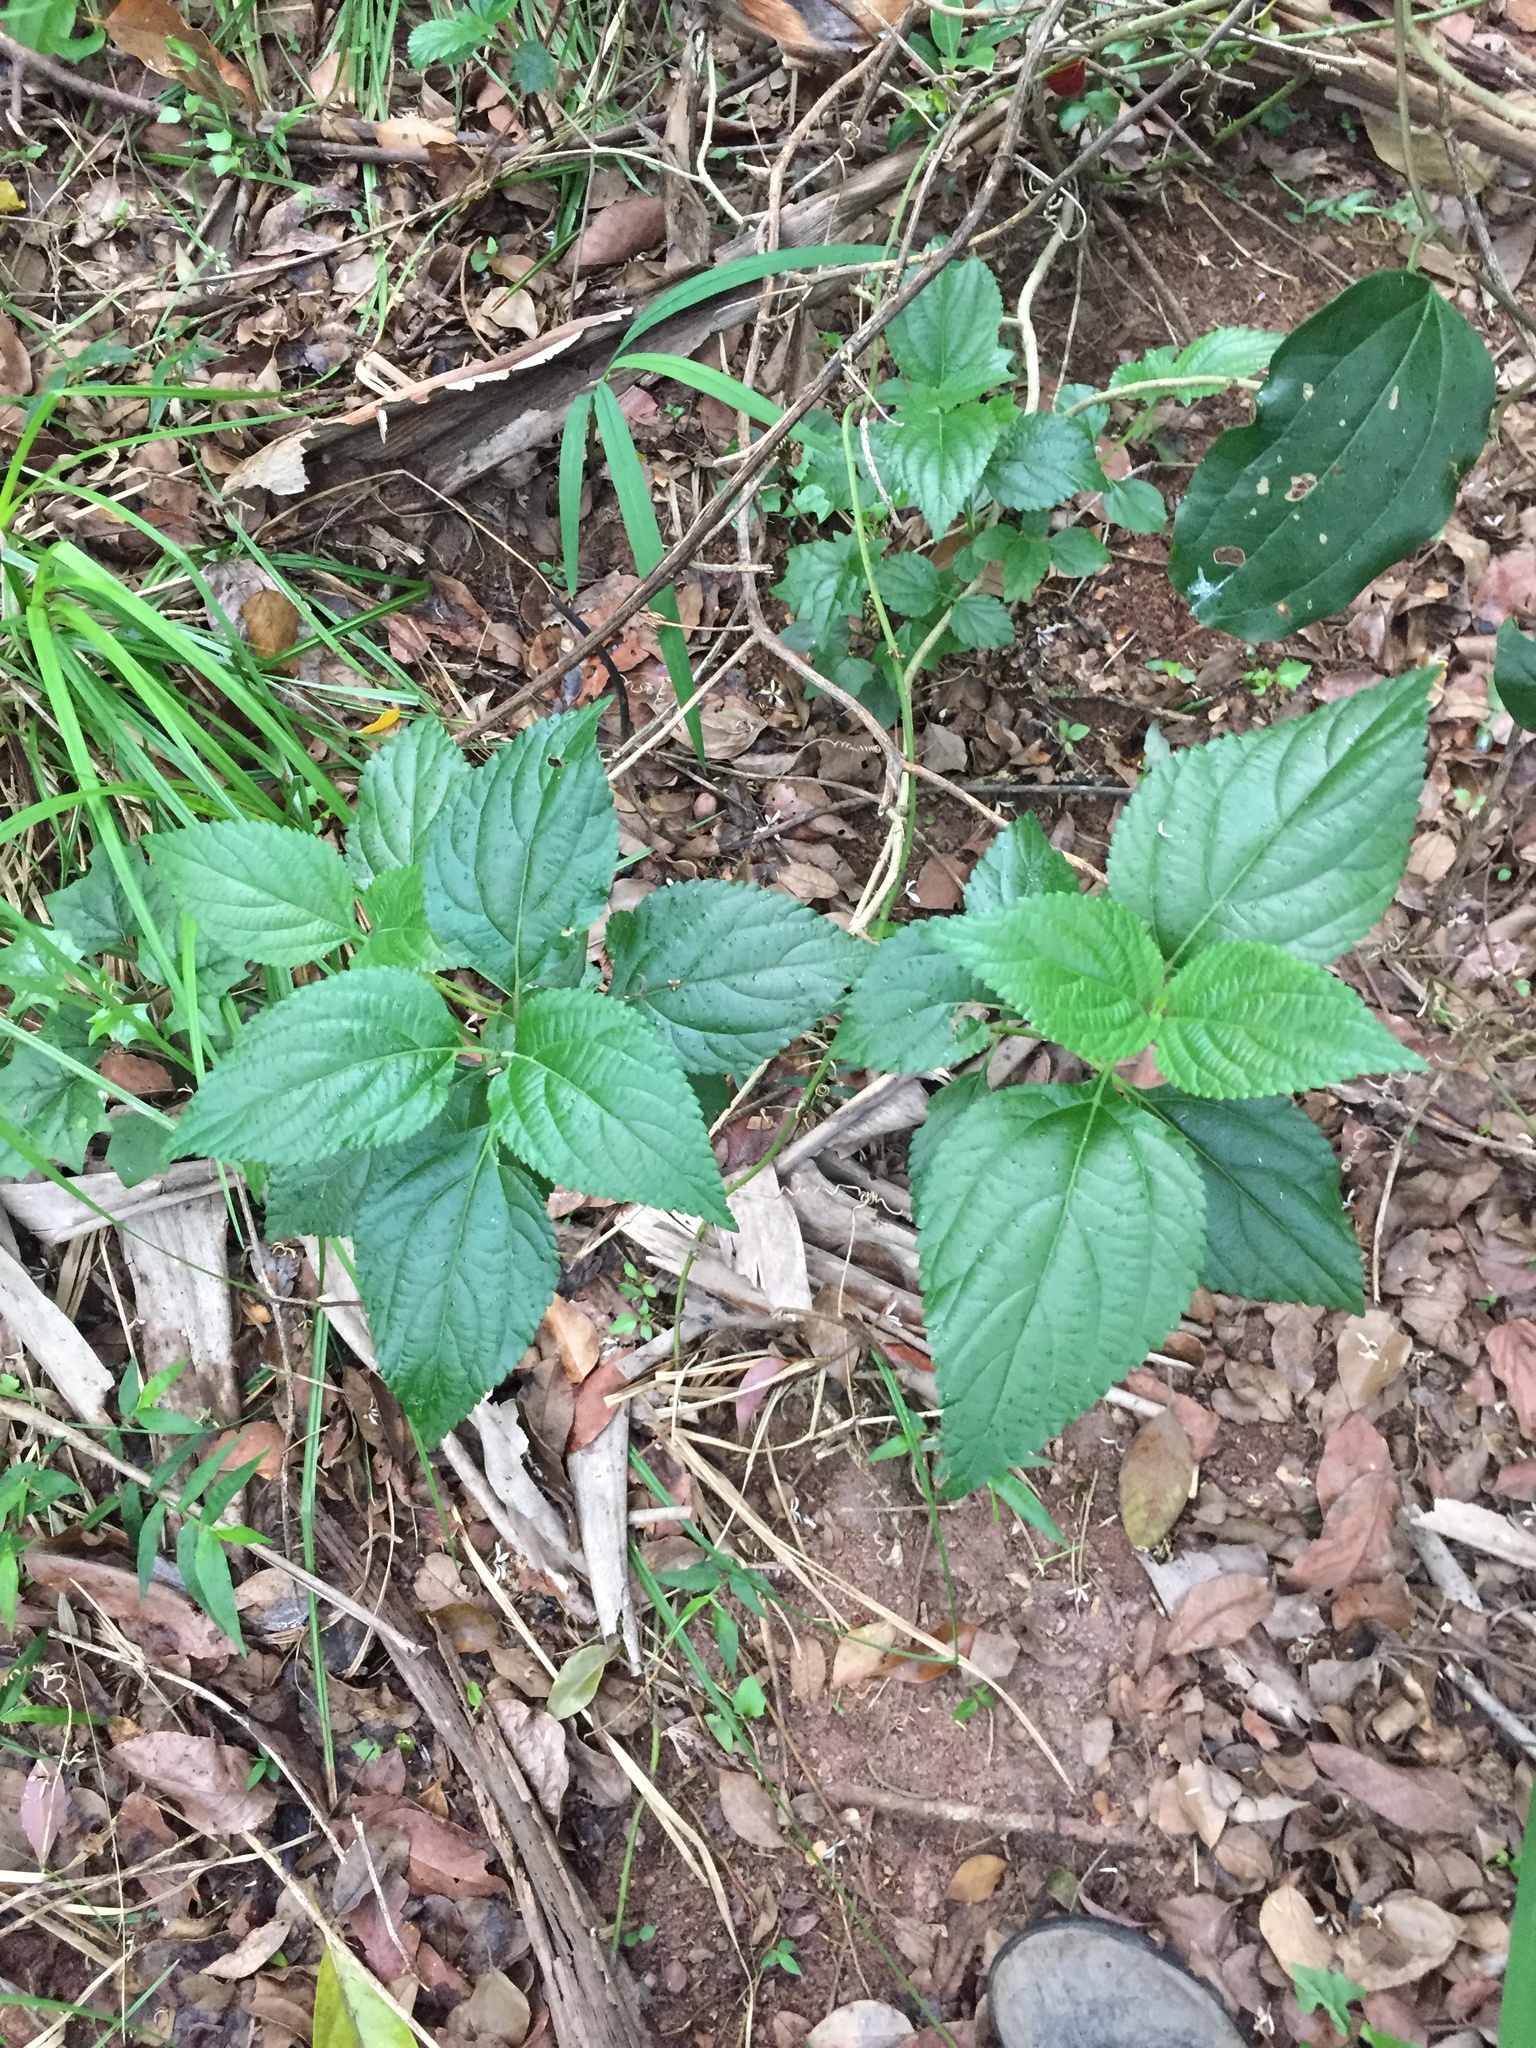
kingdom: Plantae
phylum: Tracheophyta
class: Magnoliopsida
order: Lamiales
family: Verbenaceae
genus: Lantana
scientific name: Lantana camara
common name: Lantana
